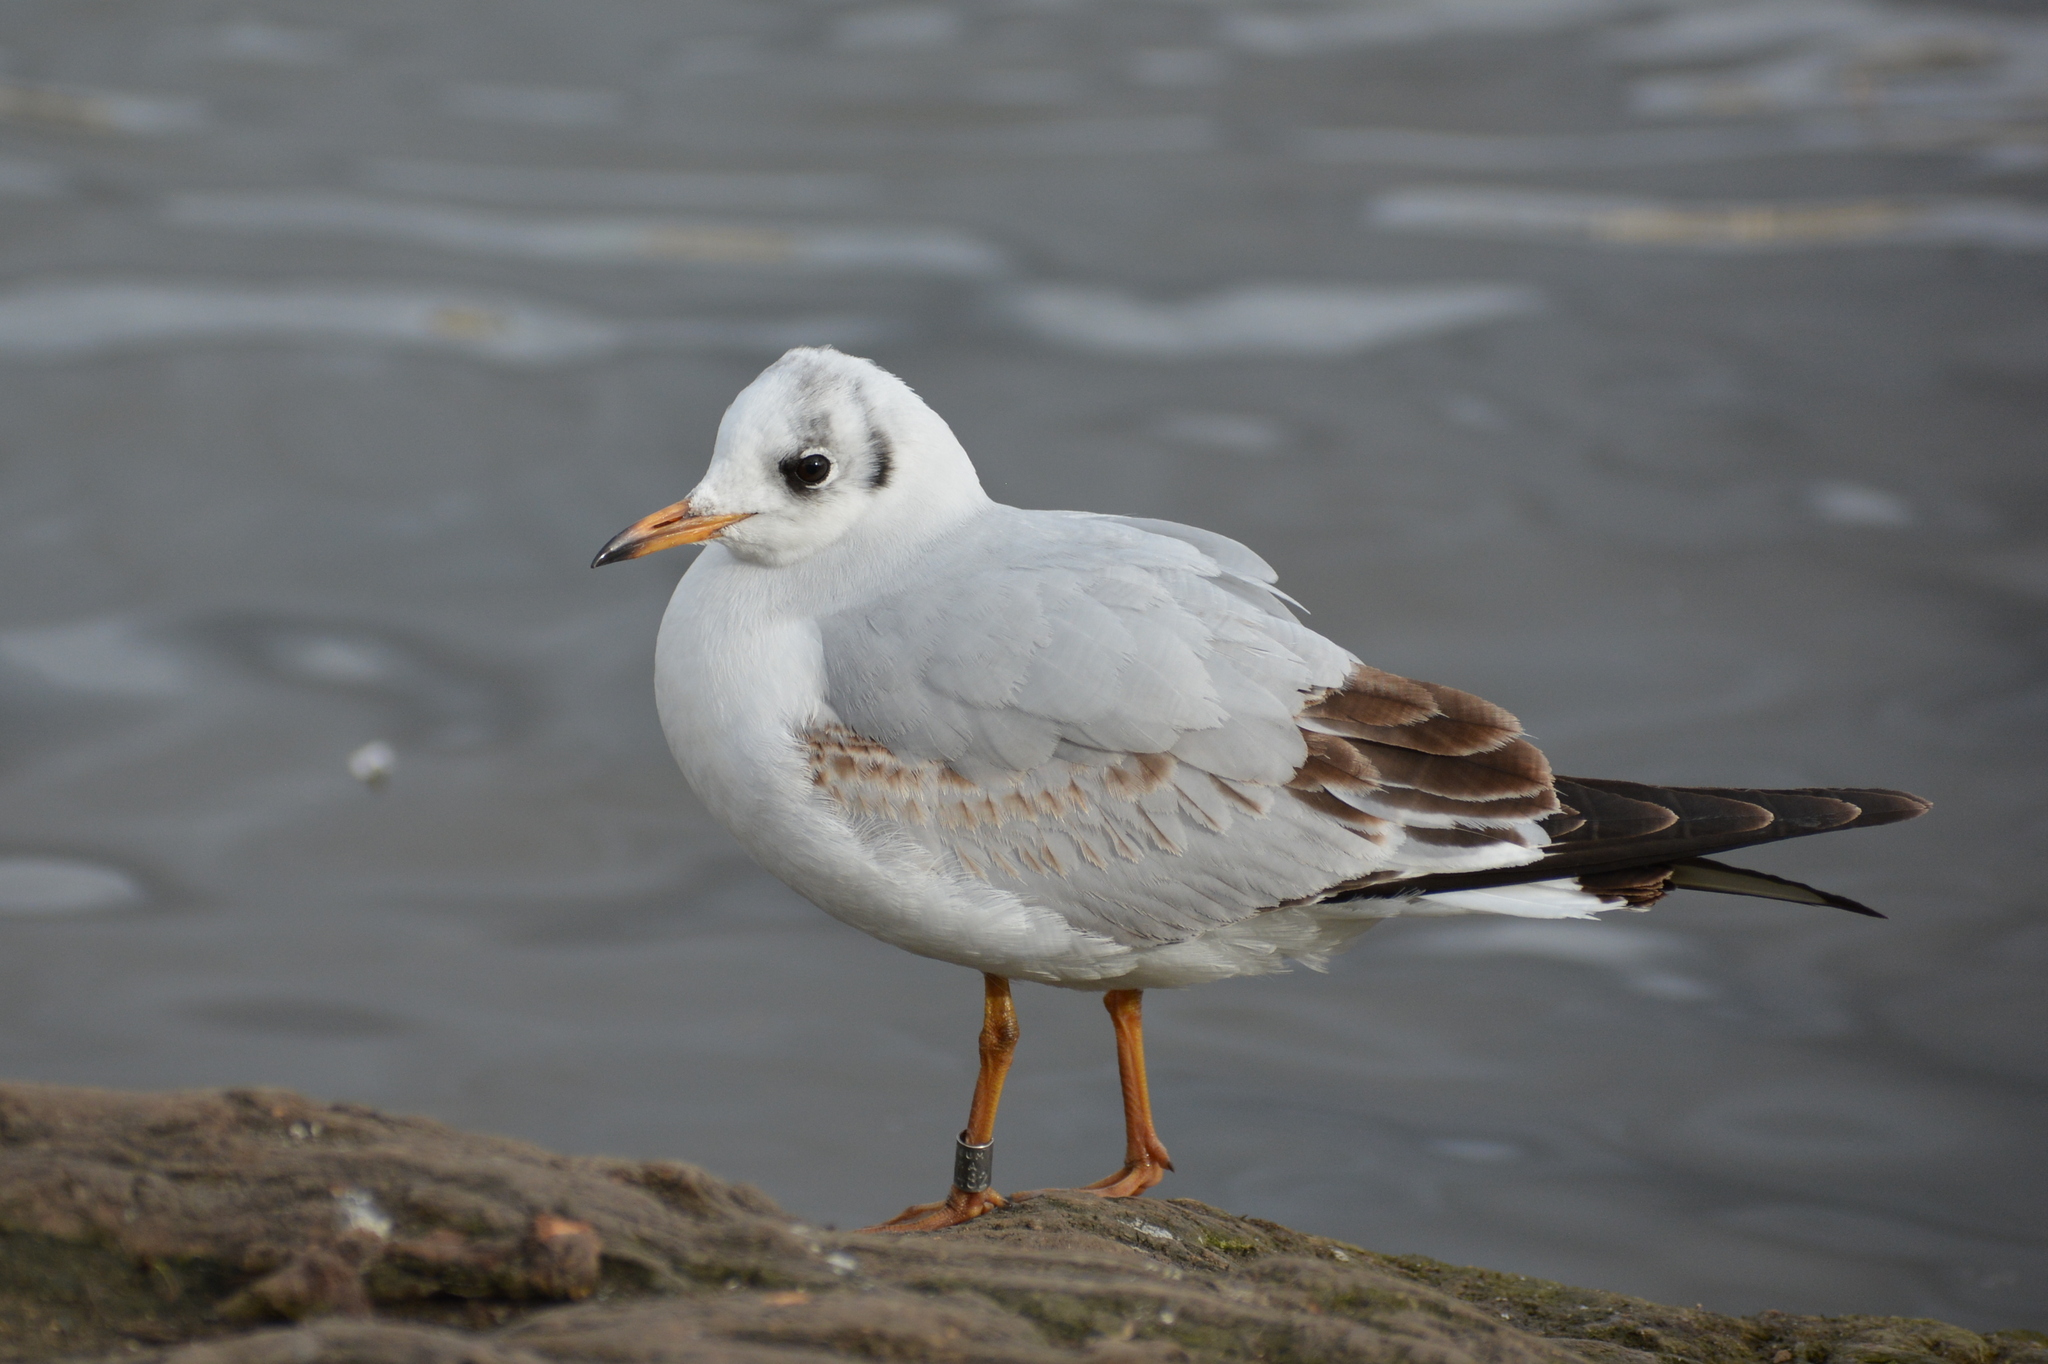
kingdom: Animalia
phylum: Chordata
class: Aves
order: Charadriiformes
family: Laridae
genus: Chroicocephalus
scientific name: Chroicocephalus ridibundus
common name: Black-headed gull
